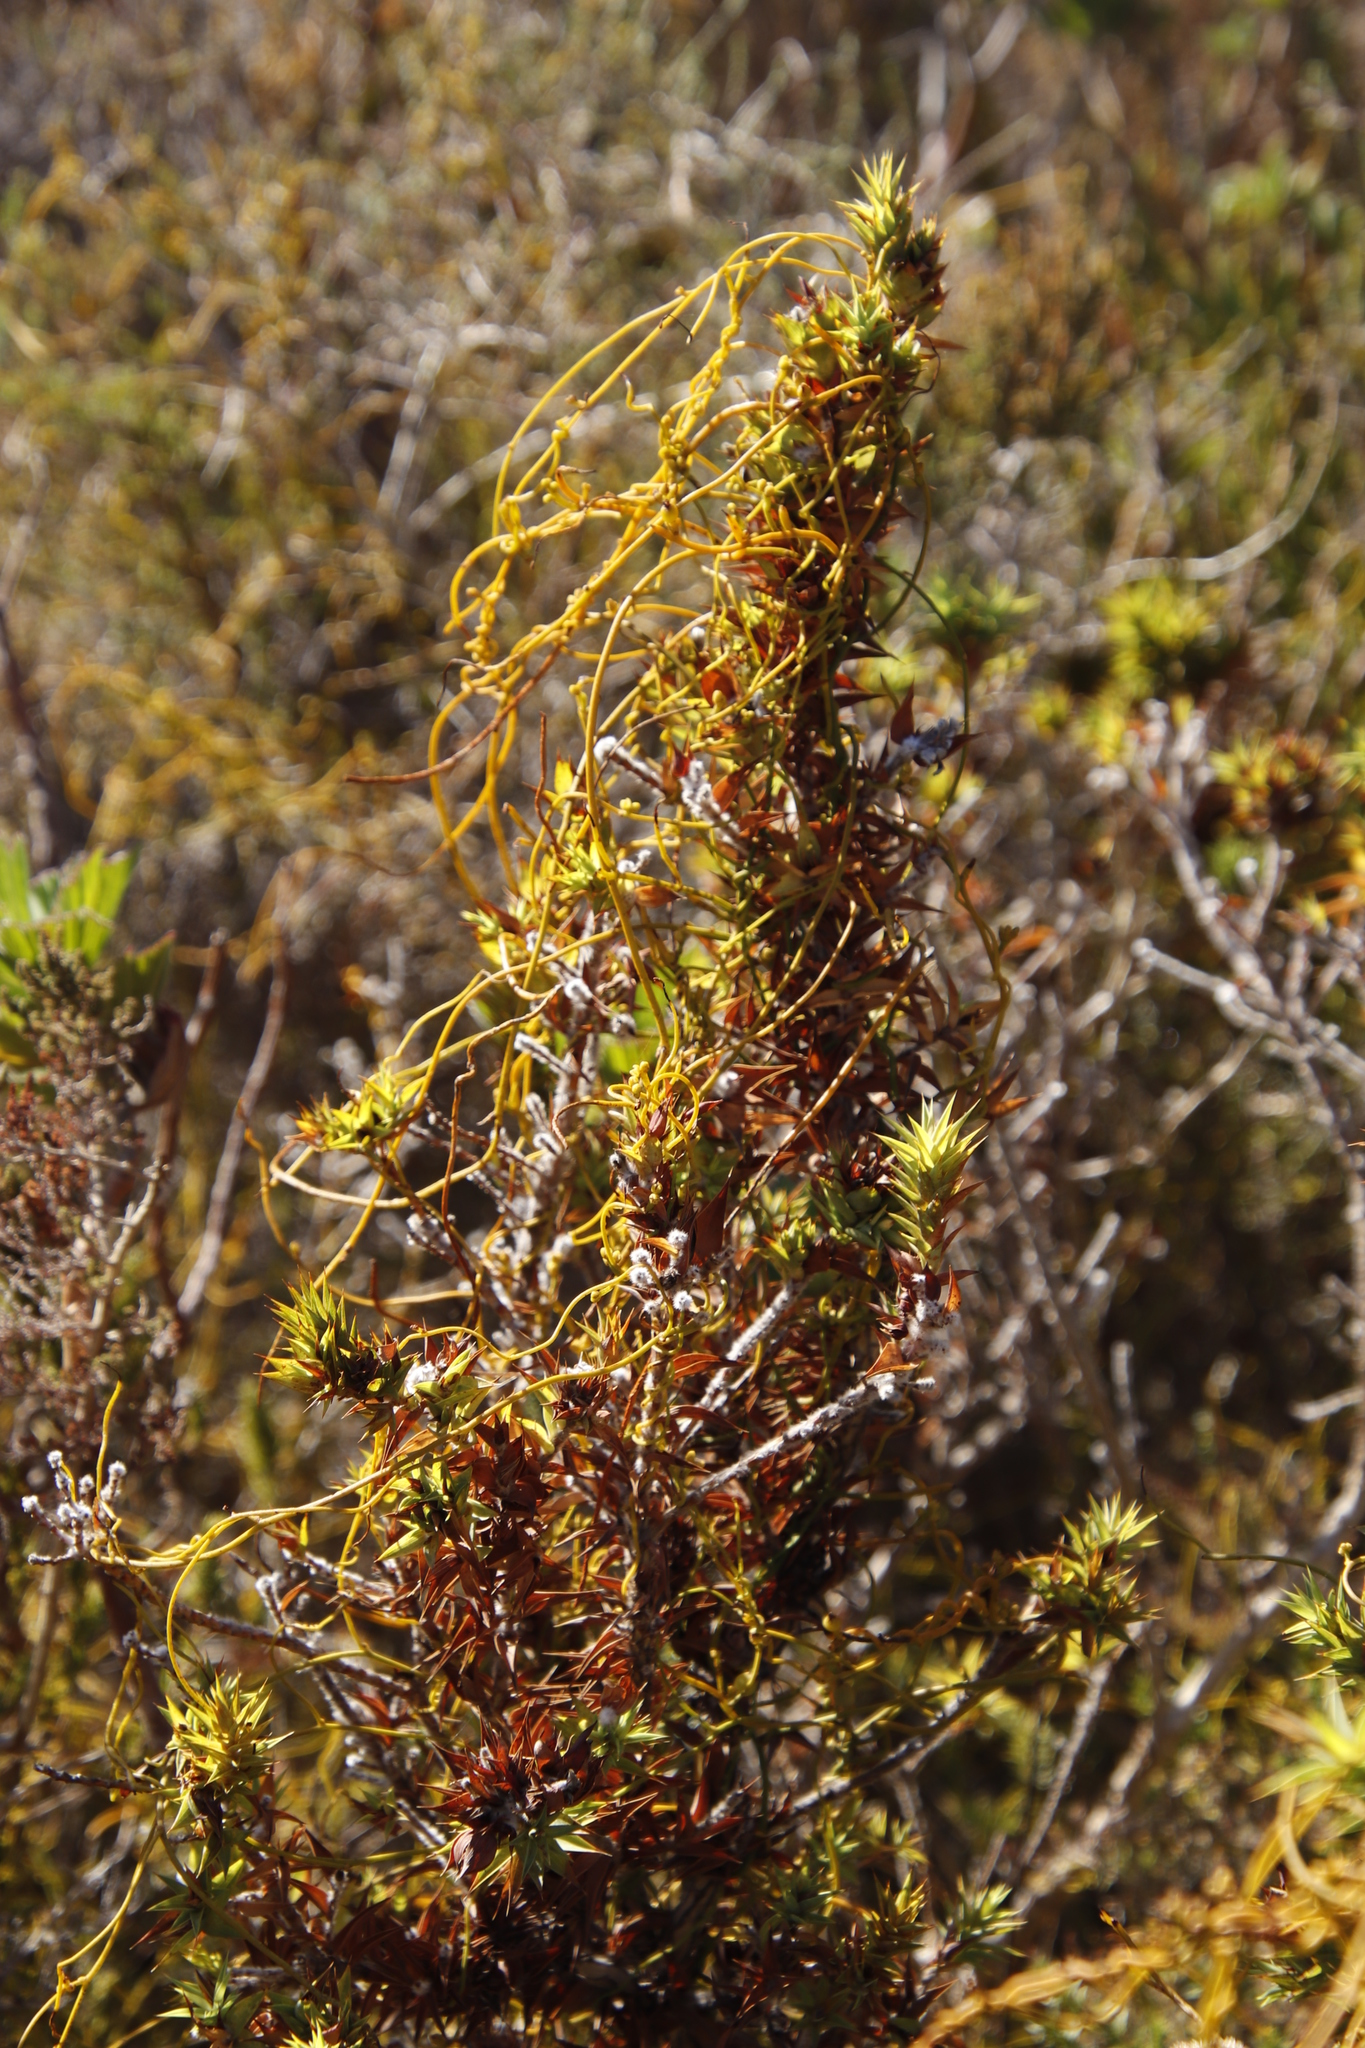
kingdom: Plantae
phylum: Tracheophyta
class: Magnoliopsida
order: Laurales
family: Lauraceae
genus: Cassytha
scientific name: Cassytha ciliolata
